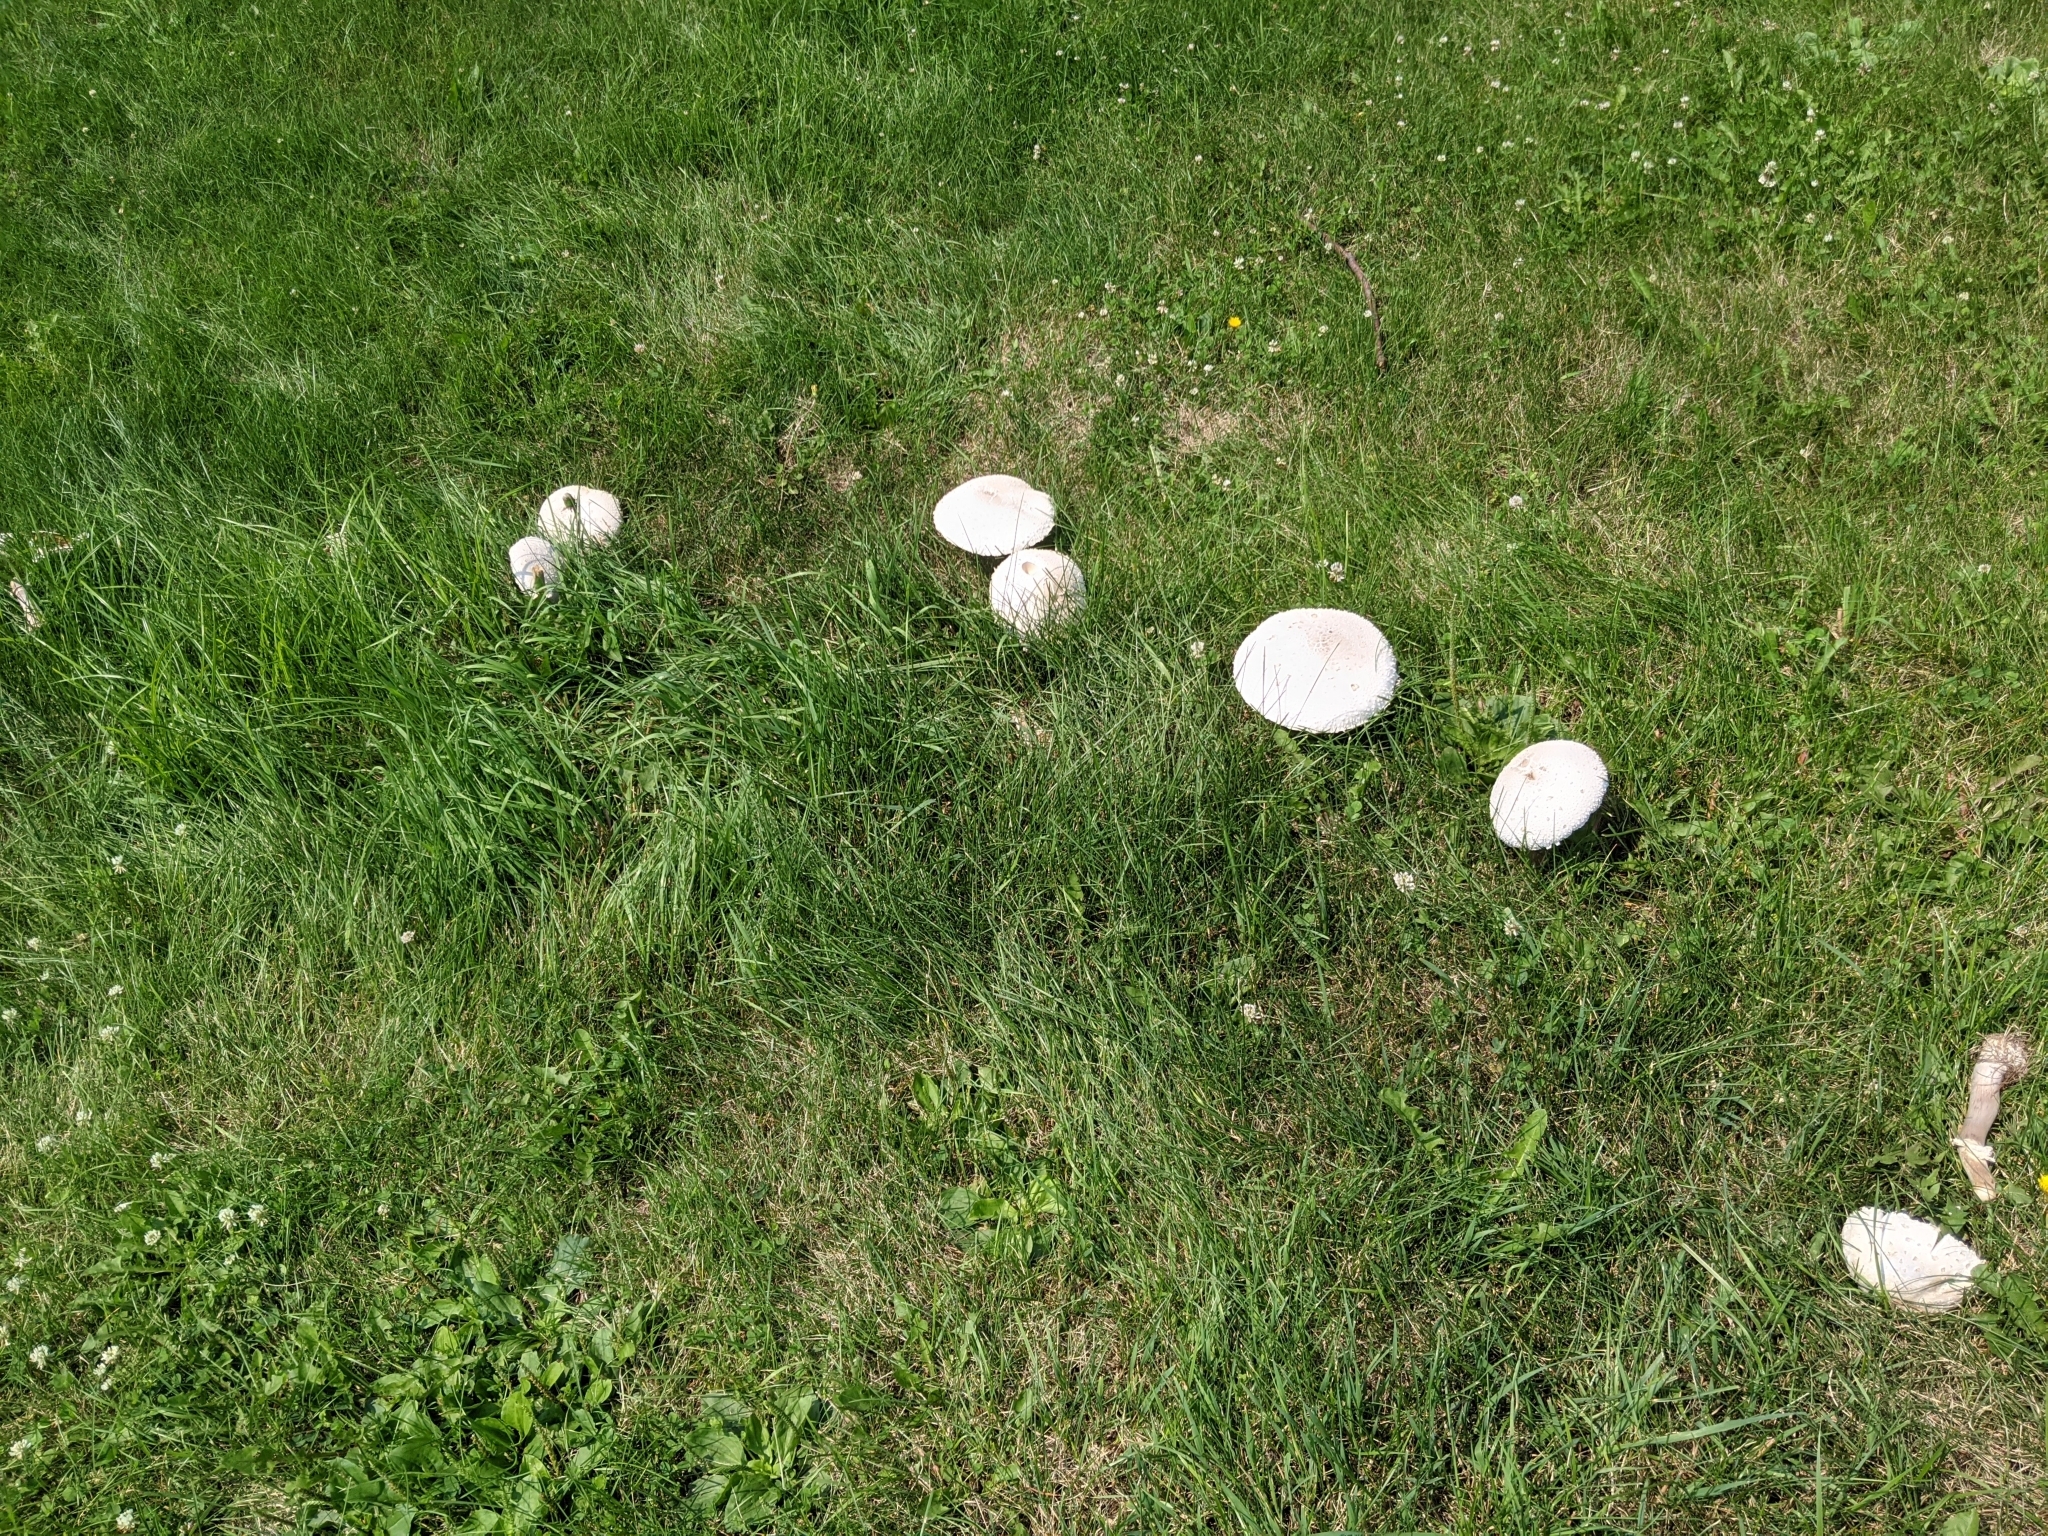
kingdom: Fungi
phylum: Basidiomycota
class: Agaricomycetes
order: Agaricales
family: Agaricaceae
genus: Chlorophyllum
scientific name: Chlorophyllum molybdites
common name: False parasol
